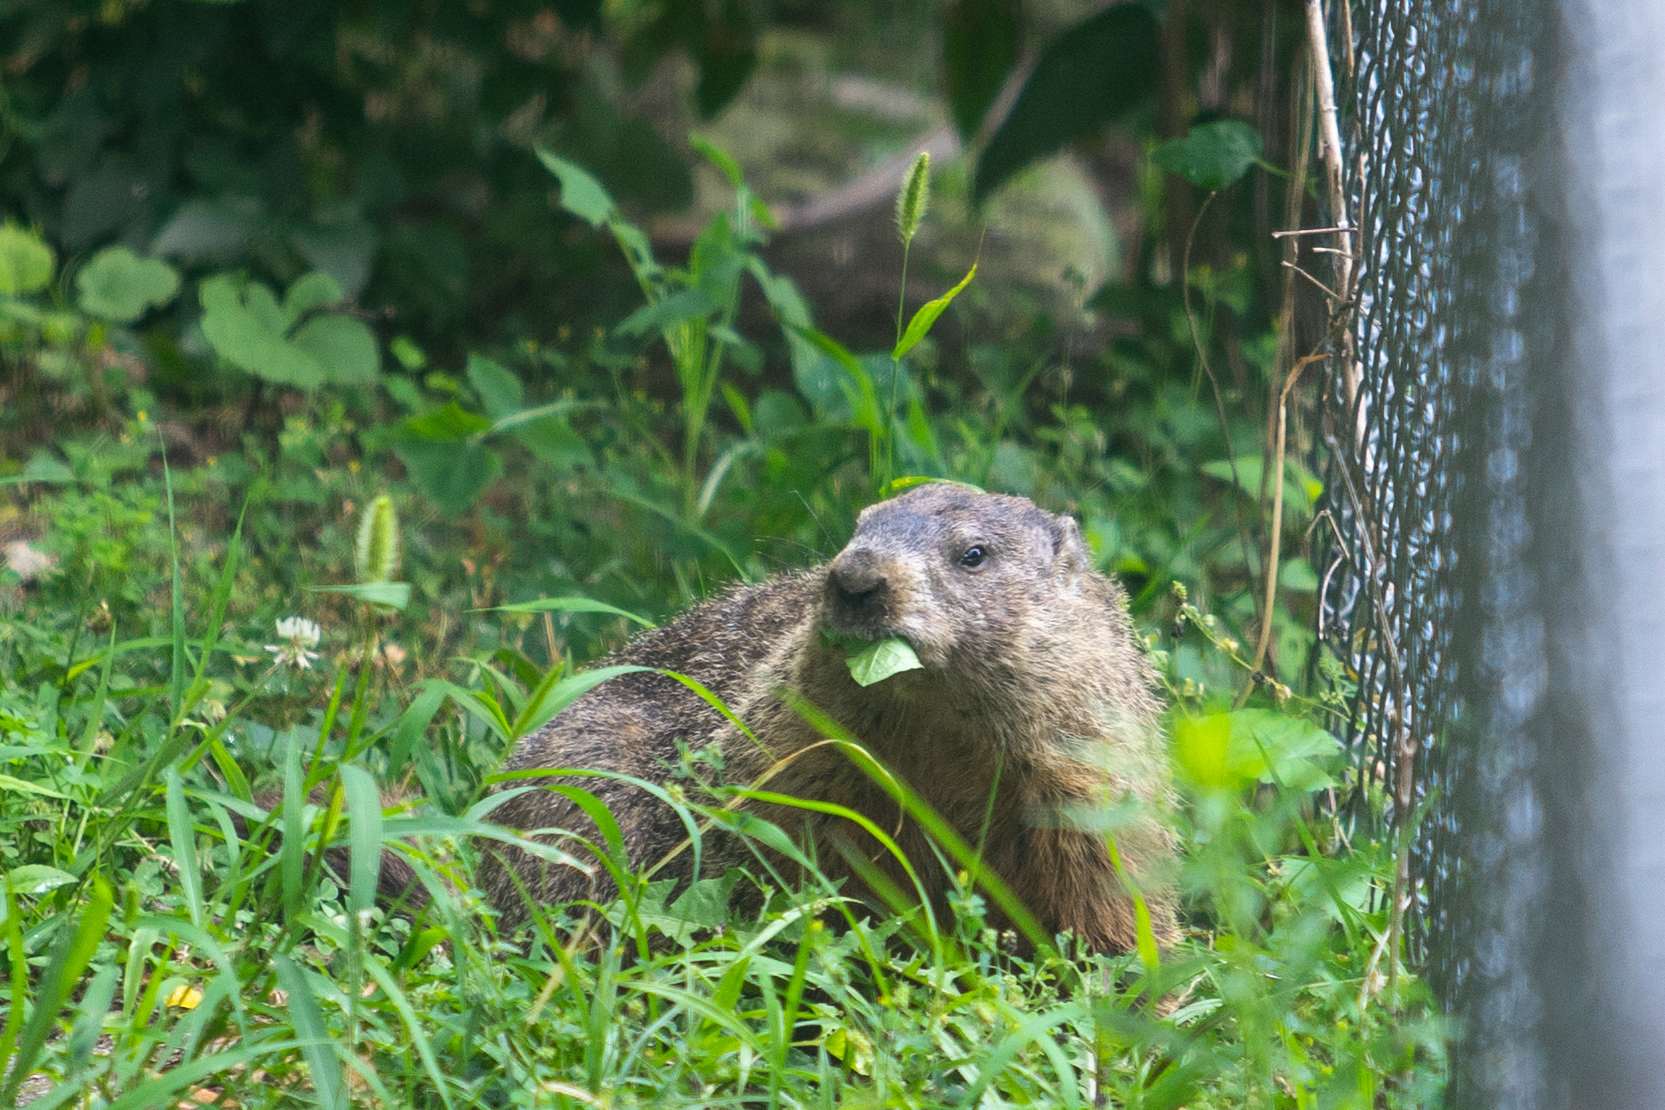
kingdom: Animalia
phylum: Chordata
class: Mammalia
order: Rodentia
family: Sciuridae
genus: Marmota
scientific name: Marmota monax
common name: Groundhog
